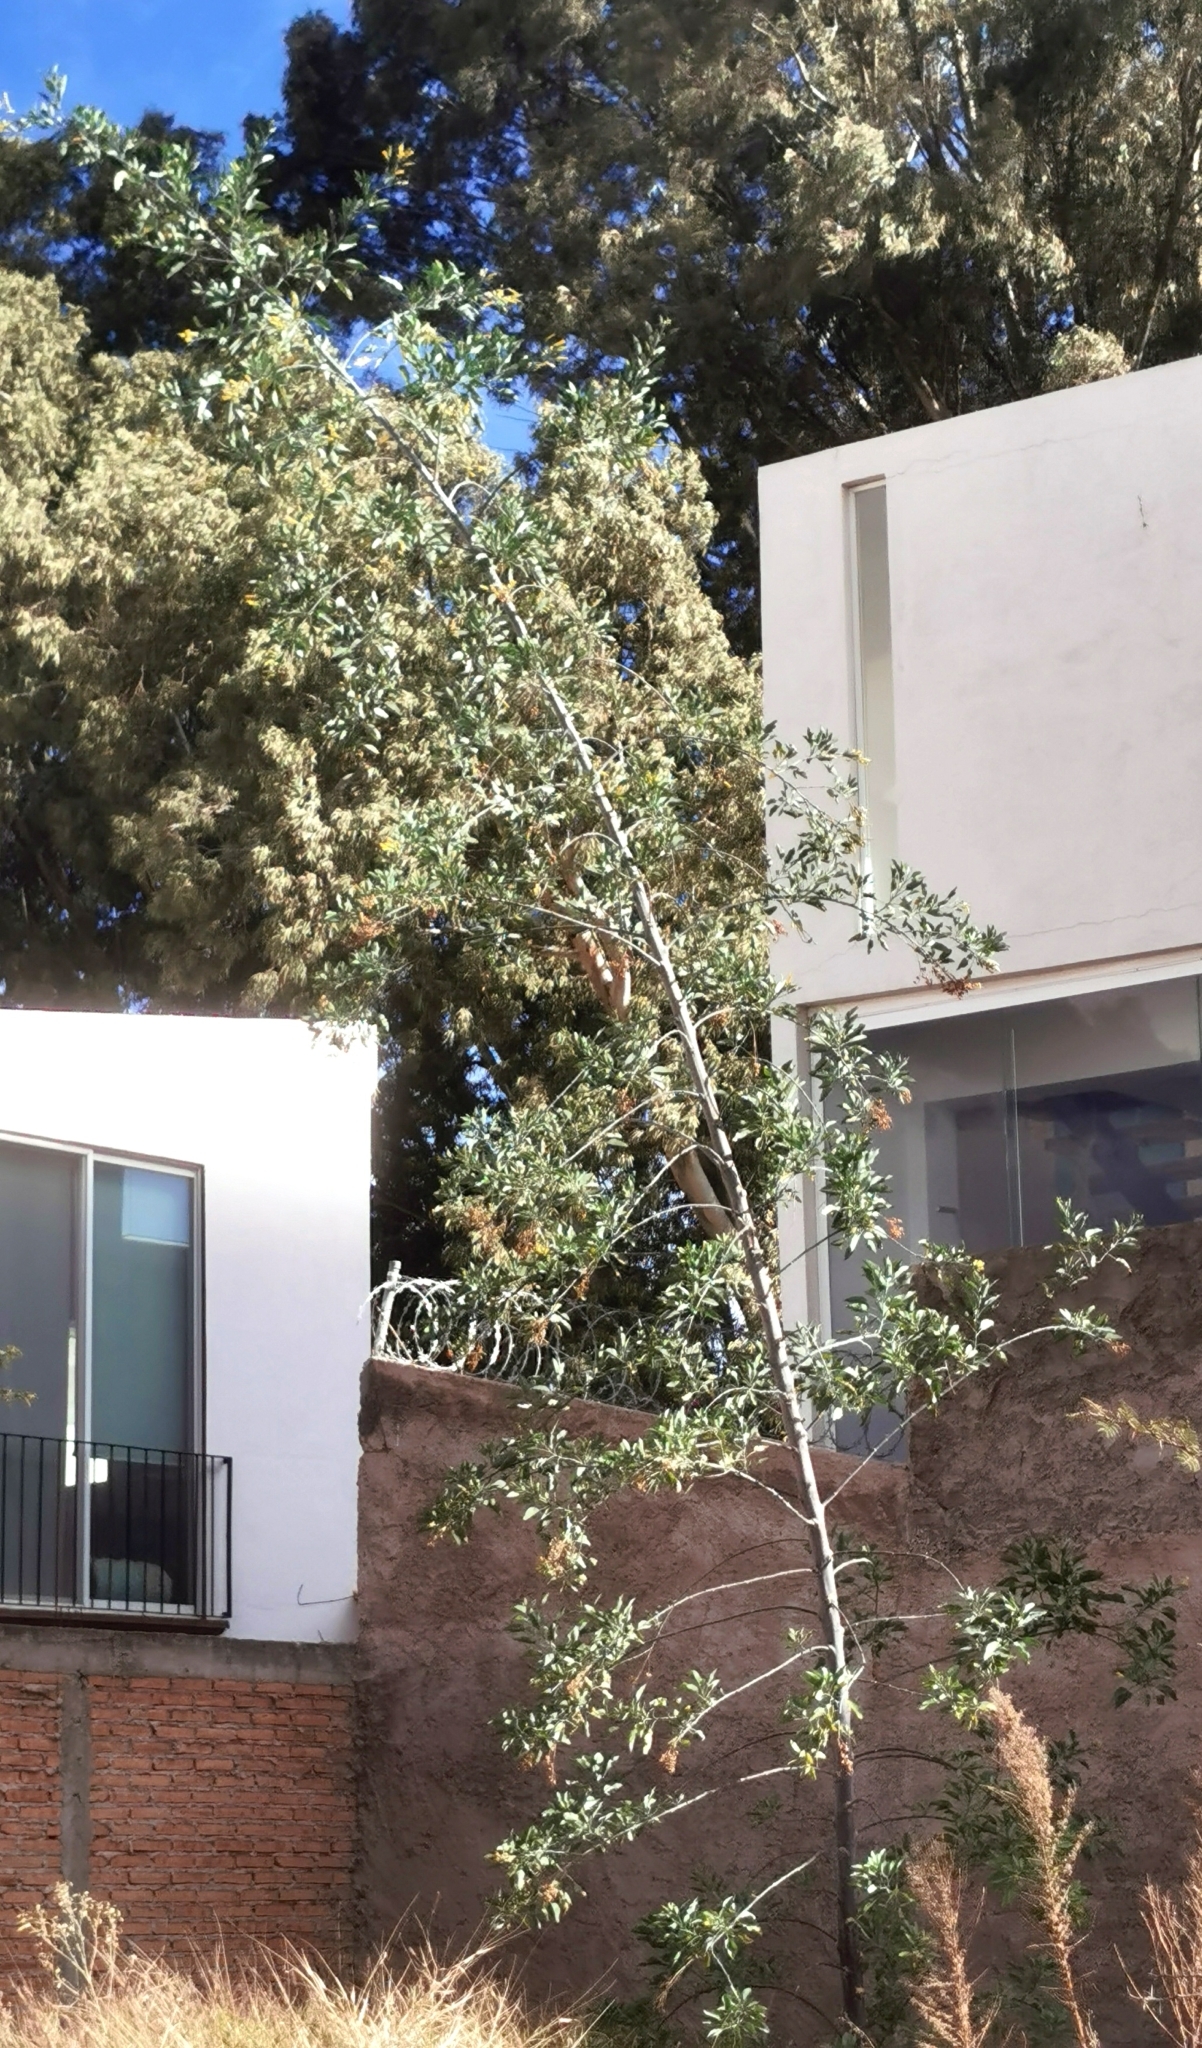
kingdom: Plantae
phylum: Tracheophyta
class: Magnoliopsida
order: Solanales
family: Solanaceae
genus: Nicotiana
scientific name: Nicotiana glauca
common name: Tree tobacco
